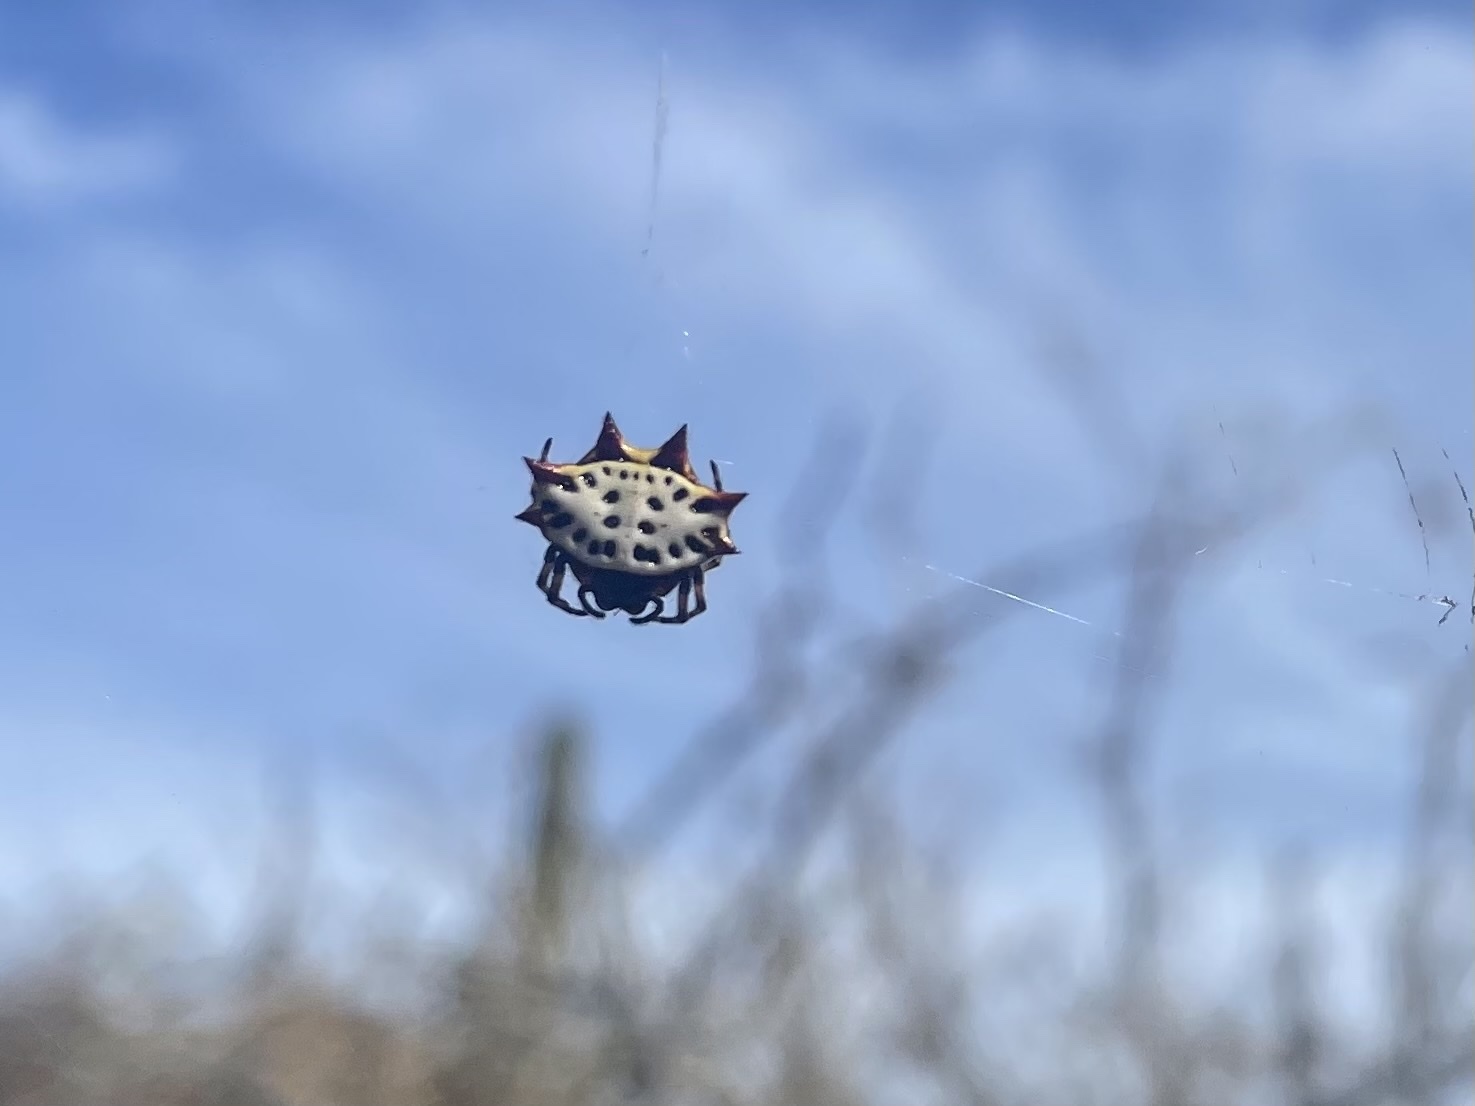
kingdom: Animalia
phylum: Arthropoda
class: Arachnida
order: Araneae
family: Araneidae
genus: Gasteracantha
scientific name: Gasteracantha cancriformis
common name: Orb weavers
